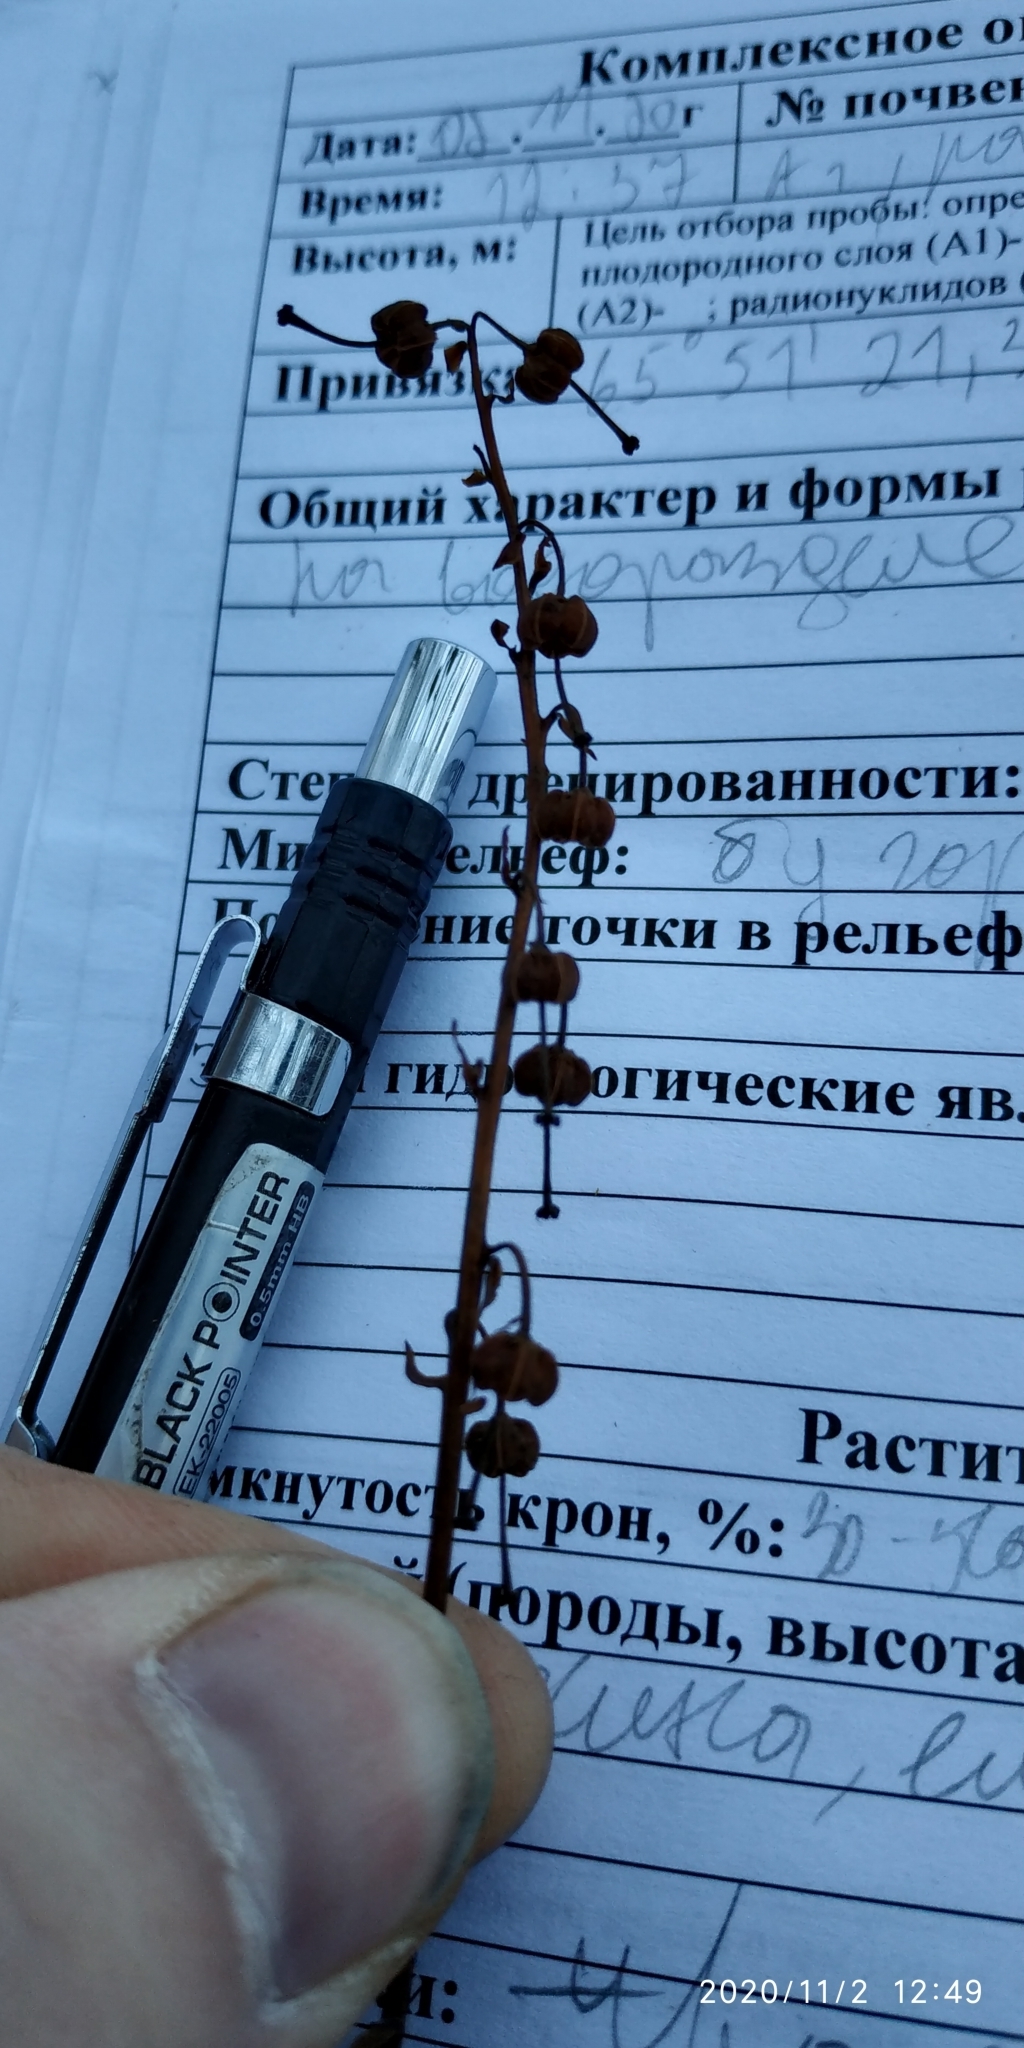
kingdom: Plantae
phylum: Tracheophyta
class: Magnoliopsida
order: Ericales
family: Ericaceae
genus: Pyrola
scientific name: Pyrola asarifolia
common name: Bog wintergreen
